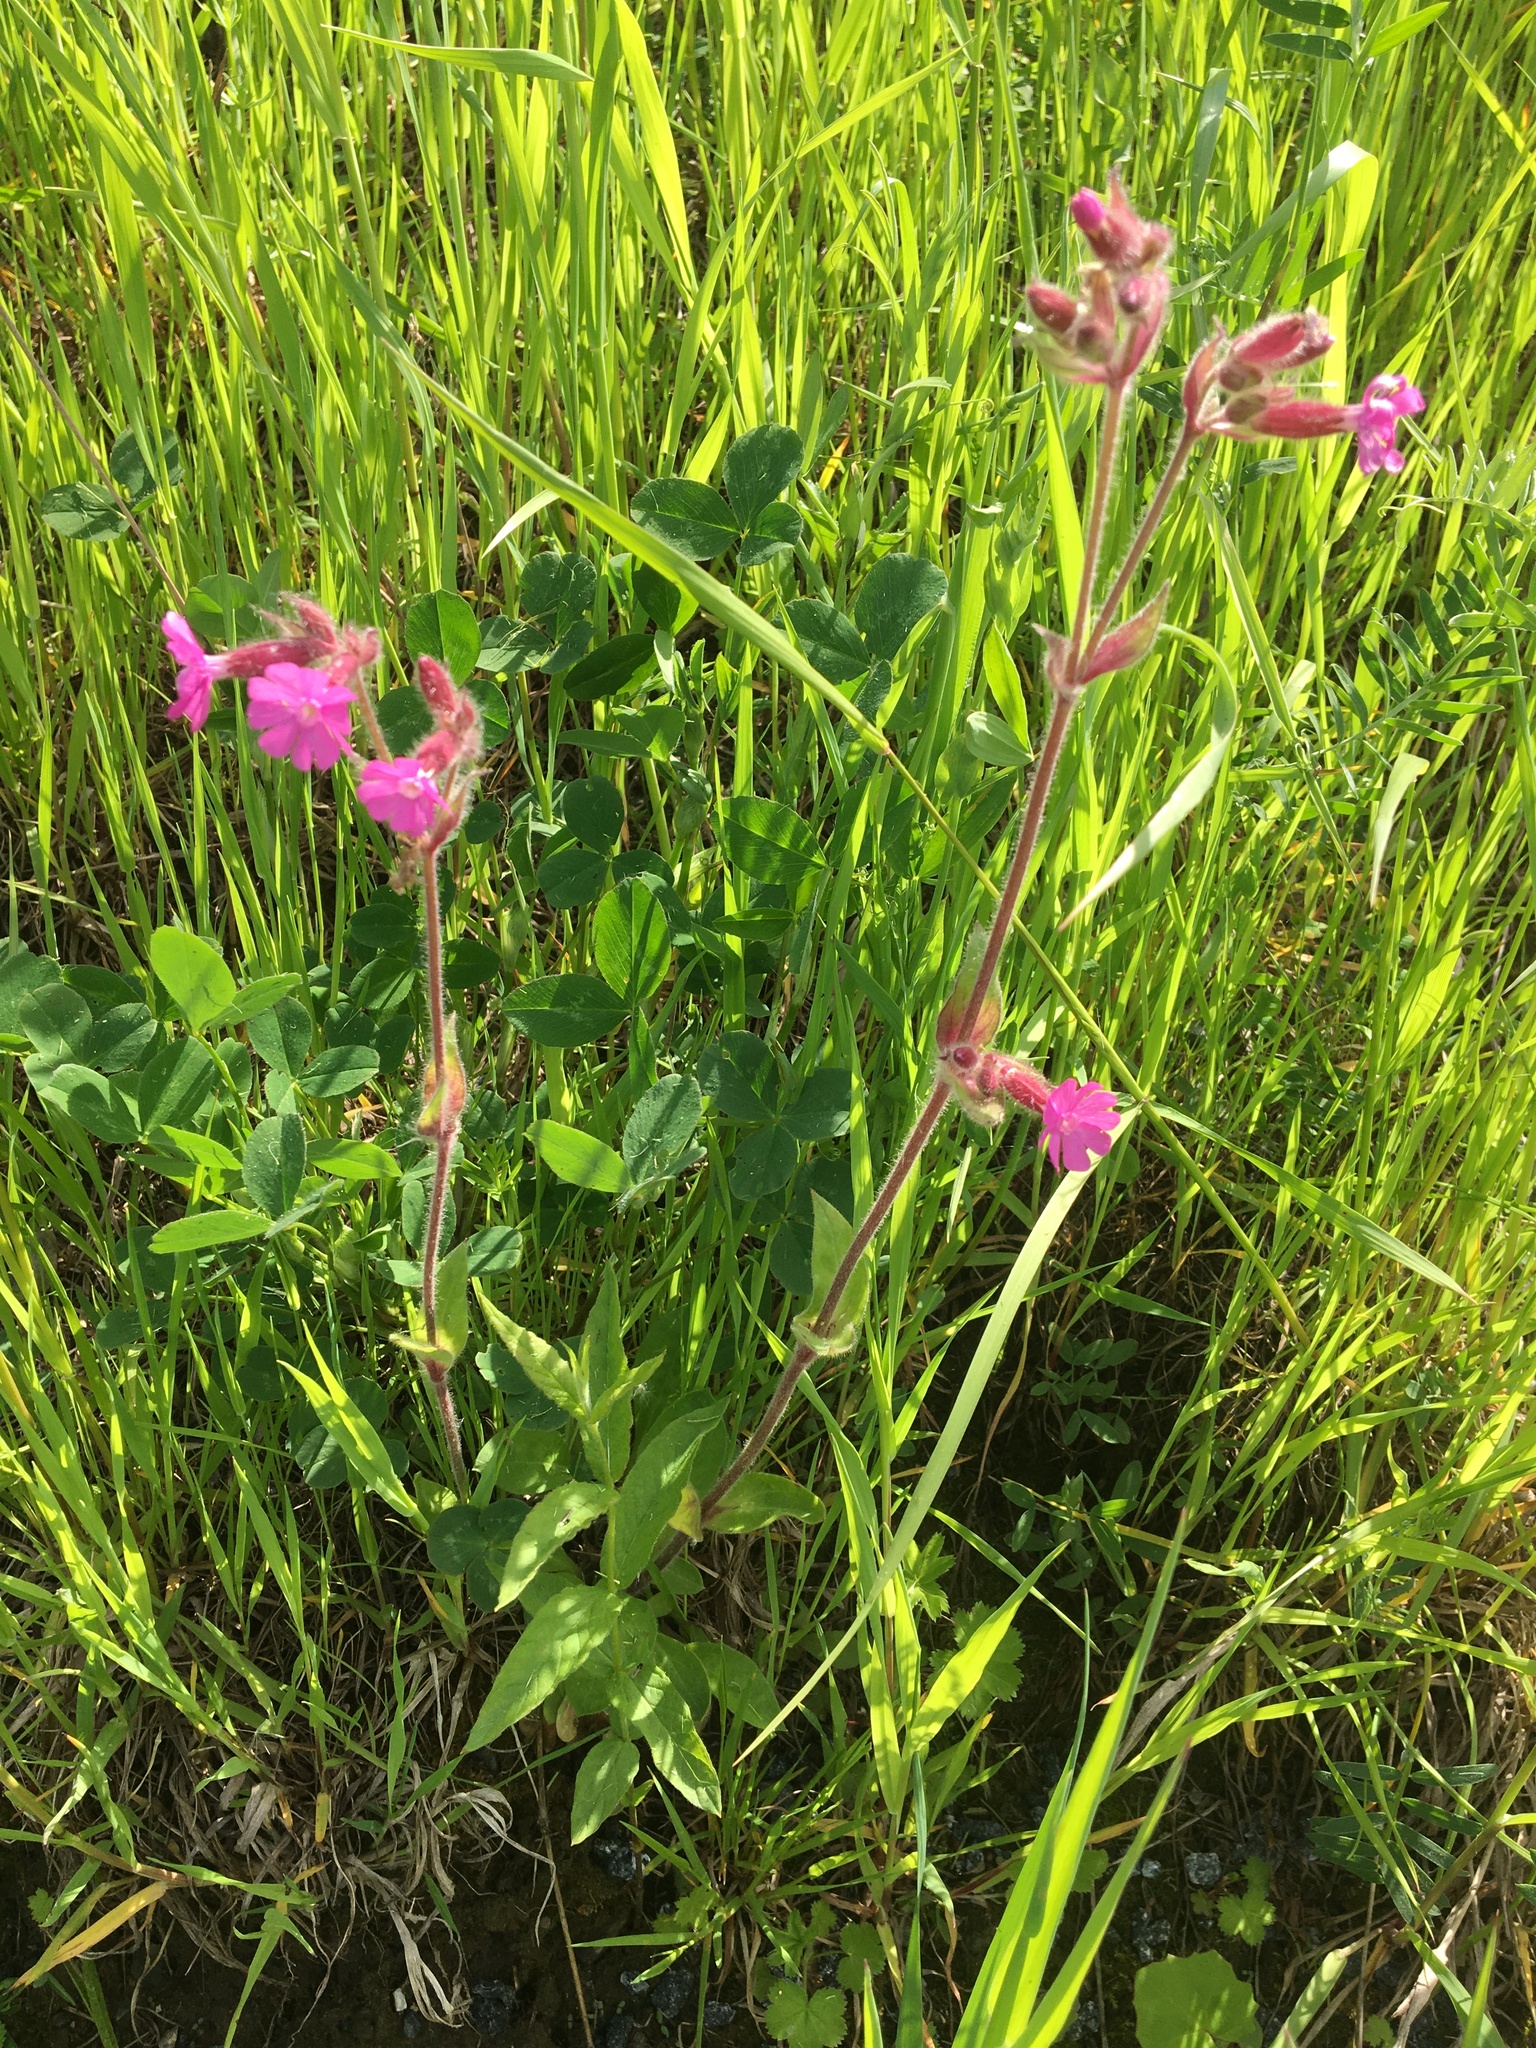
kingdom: Plantae
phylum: Tracheophyta
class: Magnoliopsida
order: Caryophyllales
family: Caryophyllaceae
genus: Silene
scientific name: Silene dioica
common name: Red campion
